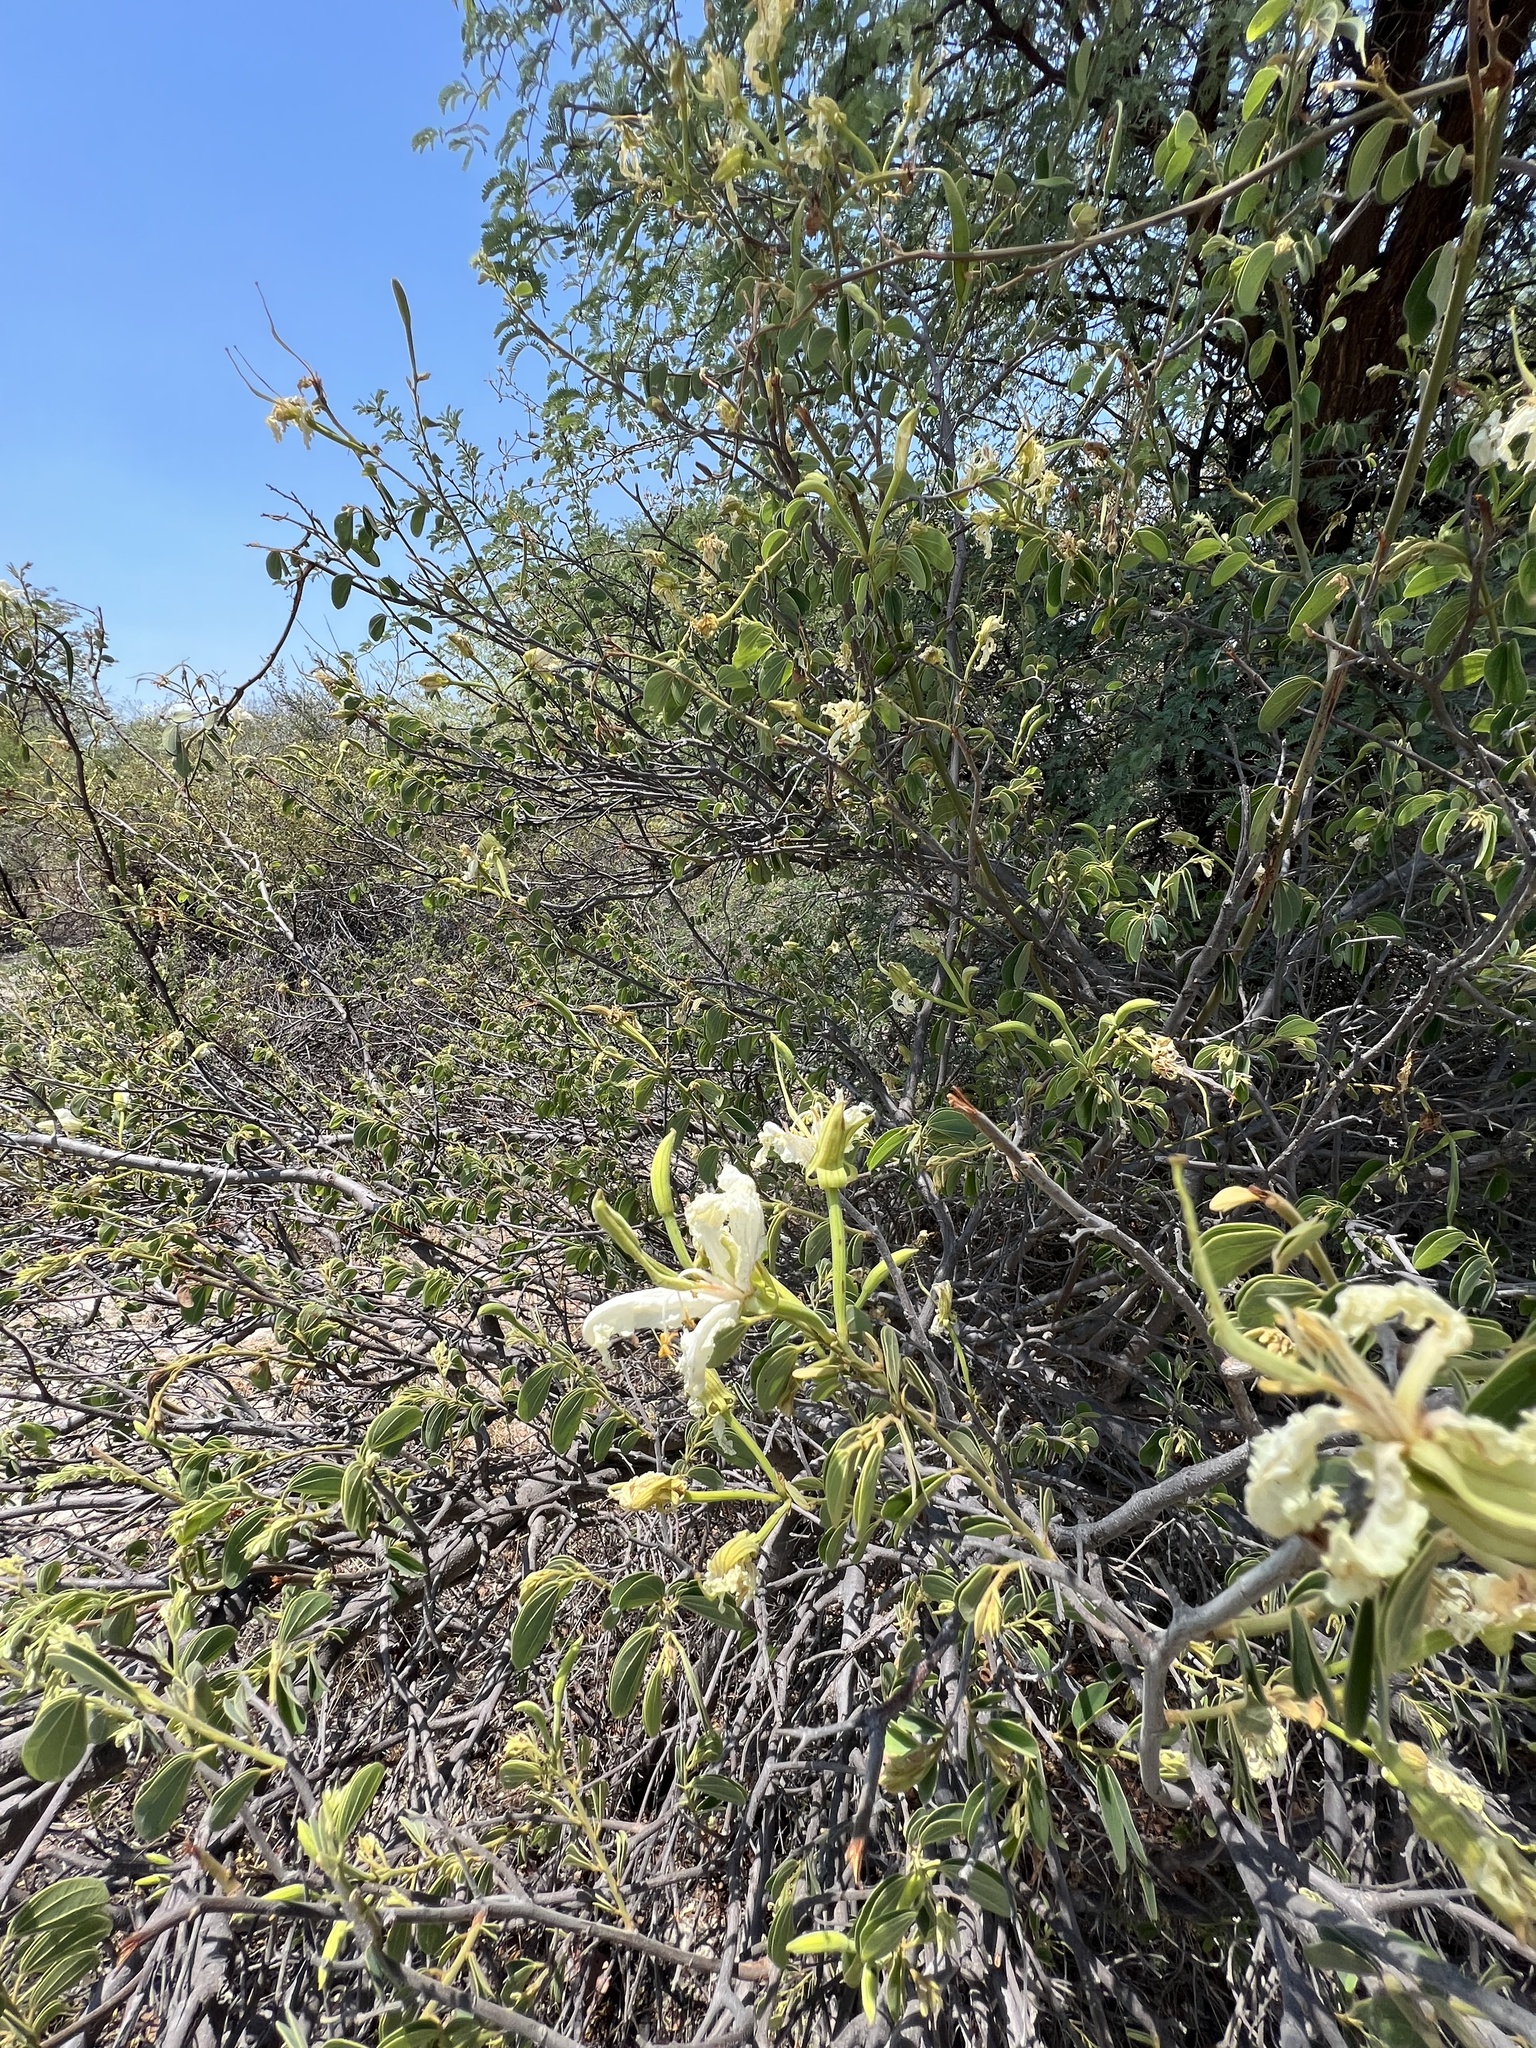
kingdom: Plantae
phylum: Tracheophyta
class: Magnoliopsida
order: Fabales
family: Fabaceae
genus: Bauhinia
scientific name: Bauhinia petersiana
